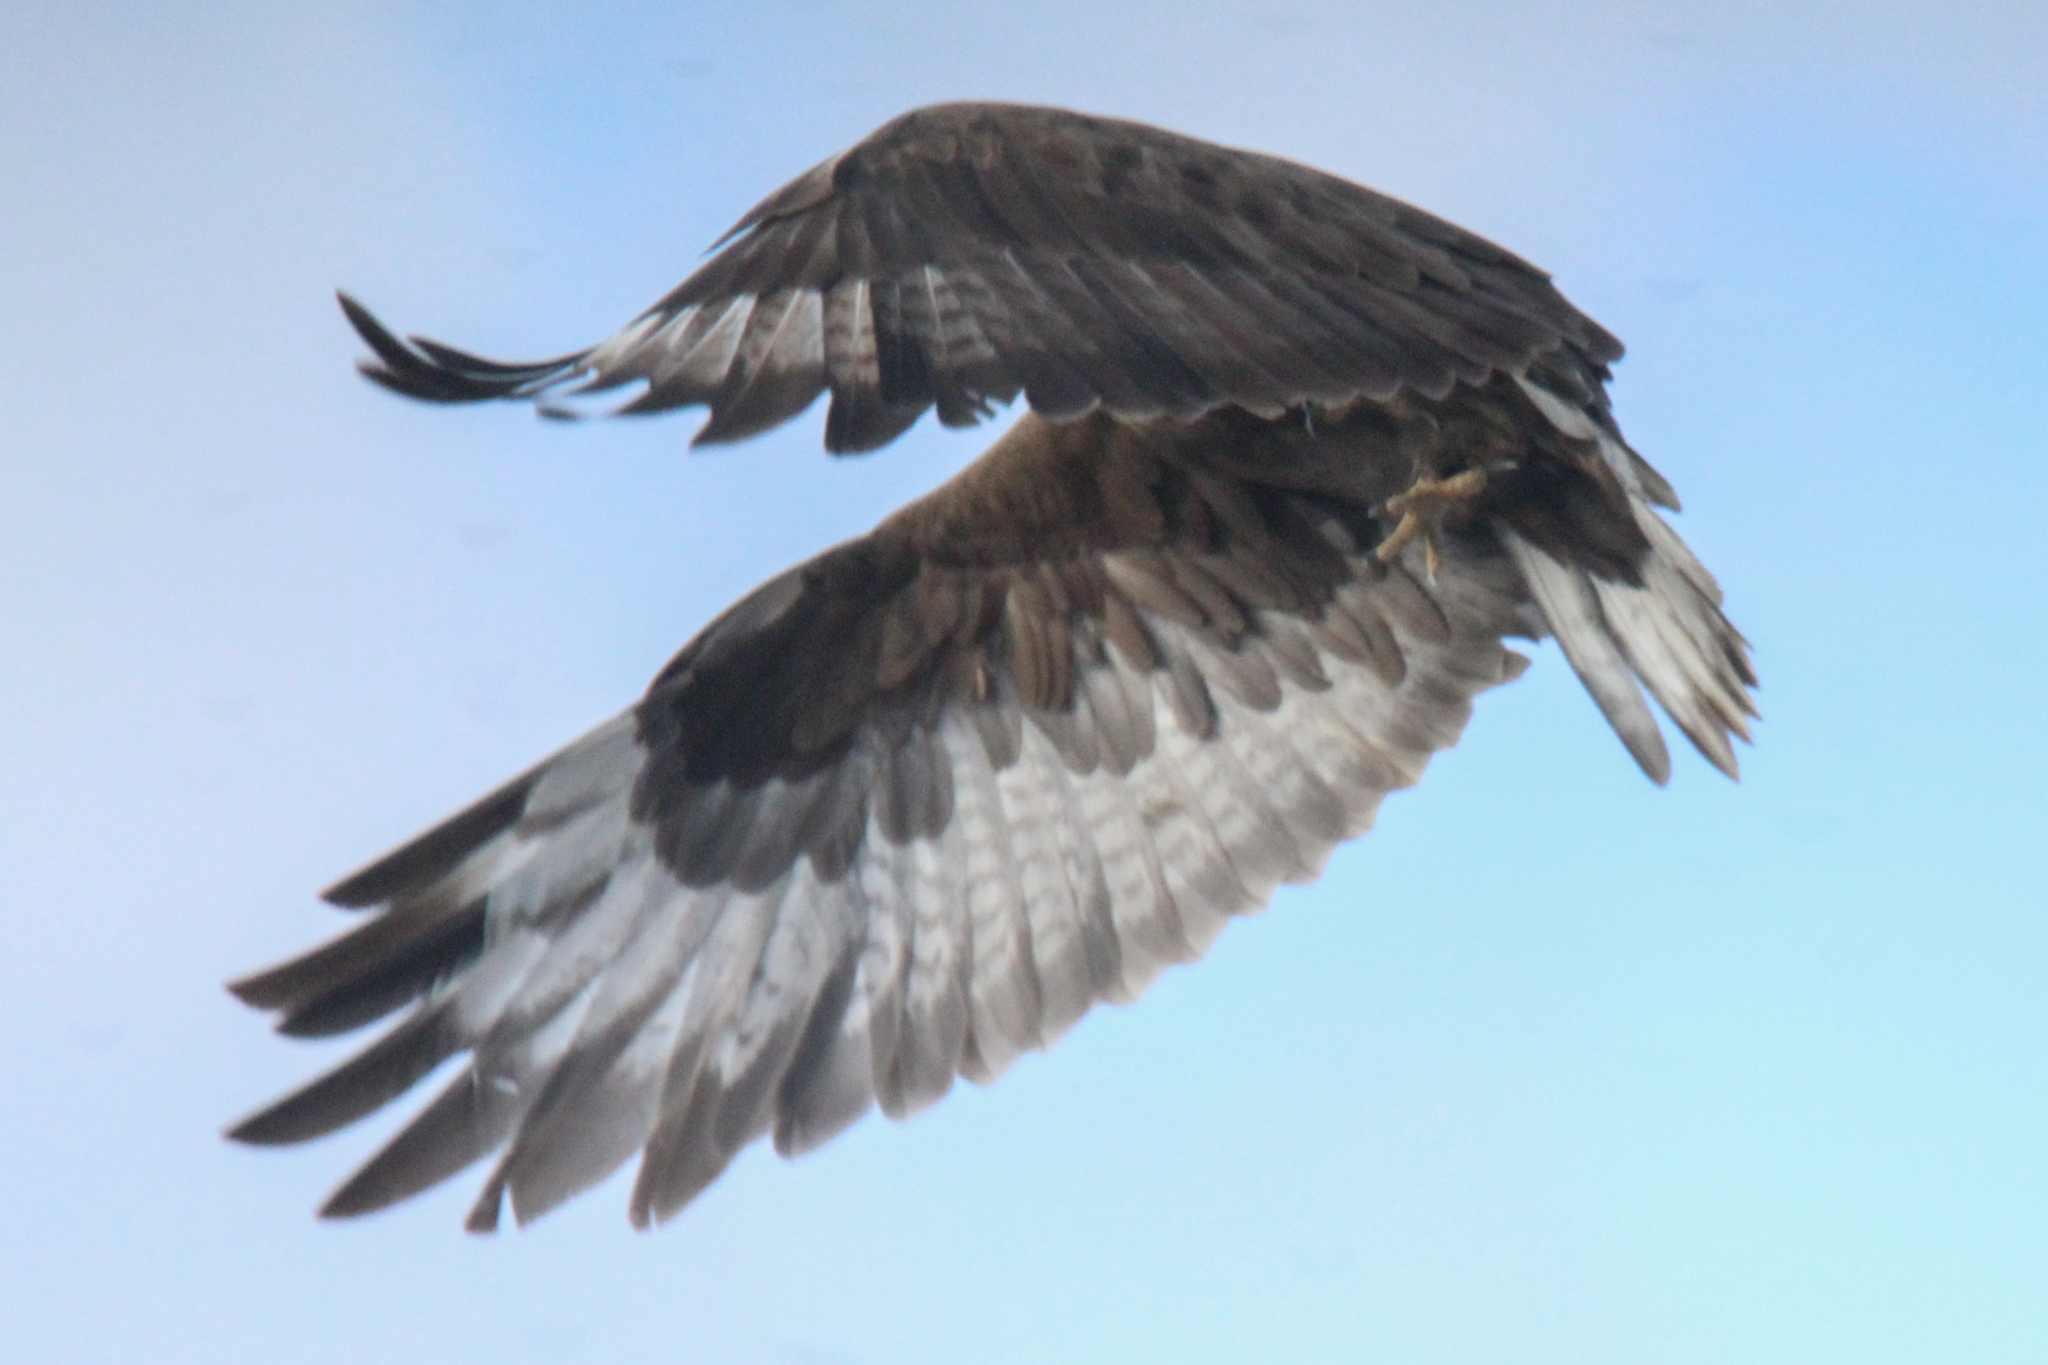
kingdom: Animalia
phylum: Chordata
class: Aves
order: Accipitriformes
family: Accipitridae
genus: Buteo
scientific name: Buteo hemilasius
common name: Upland buzzard
